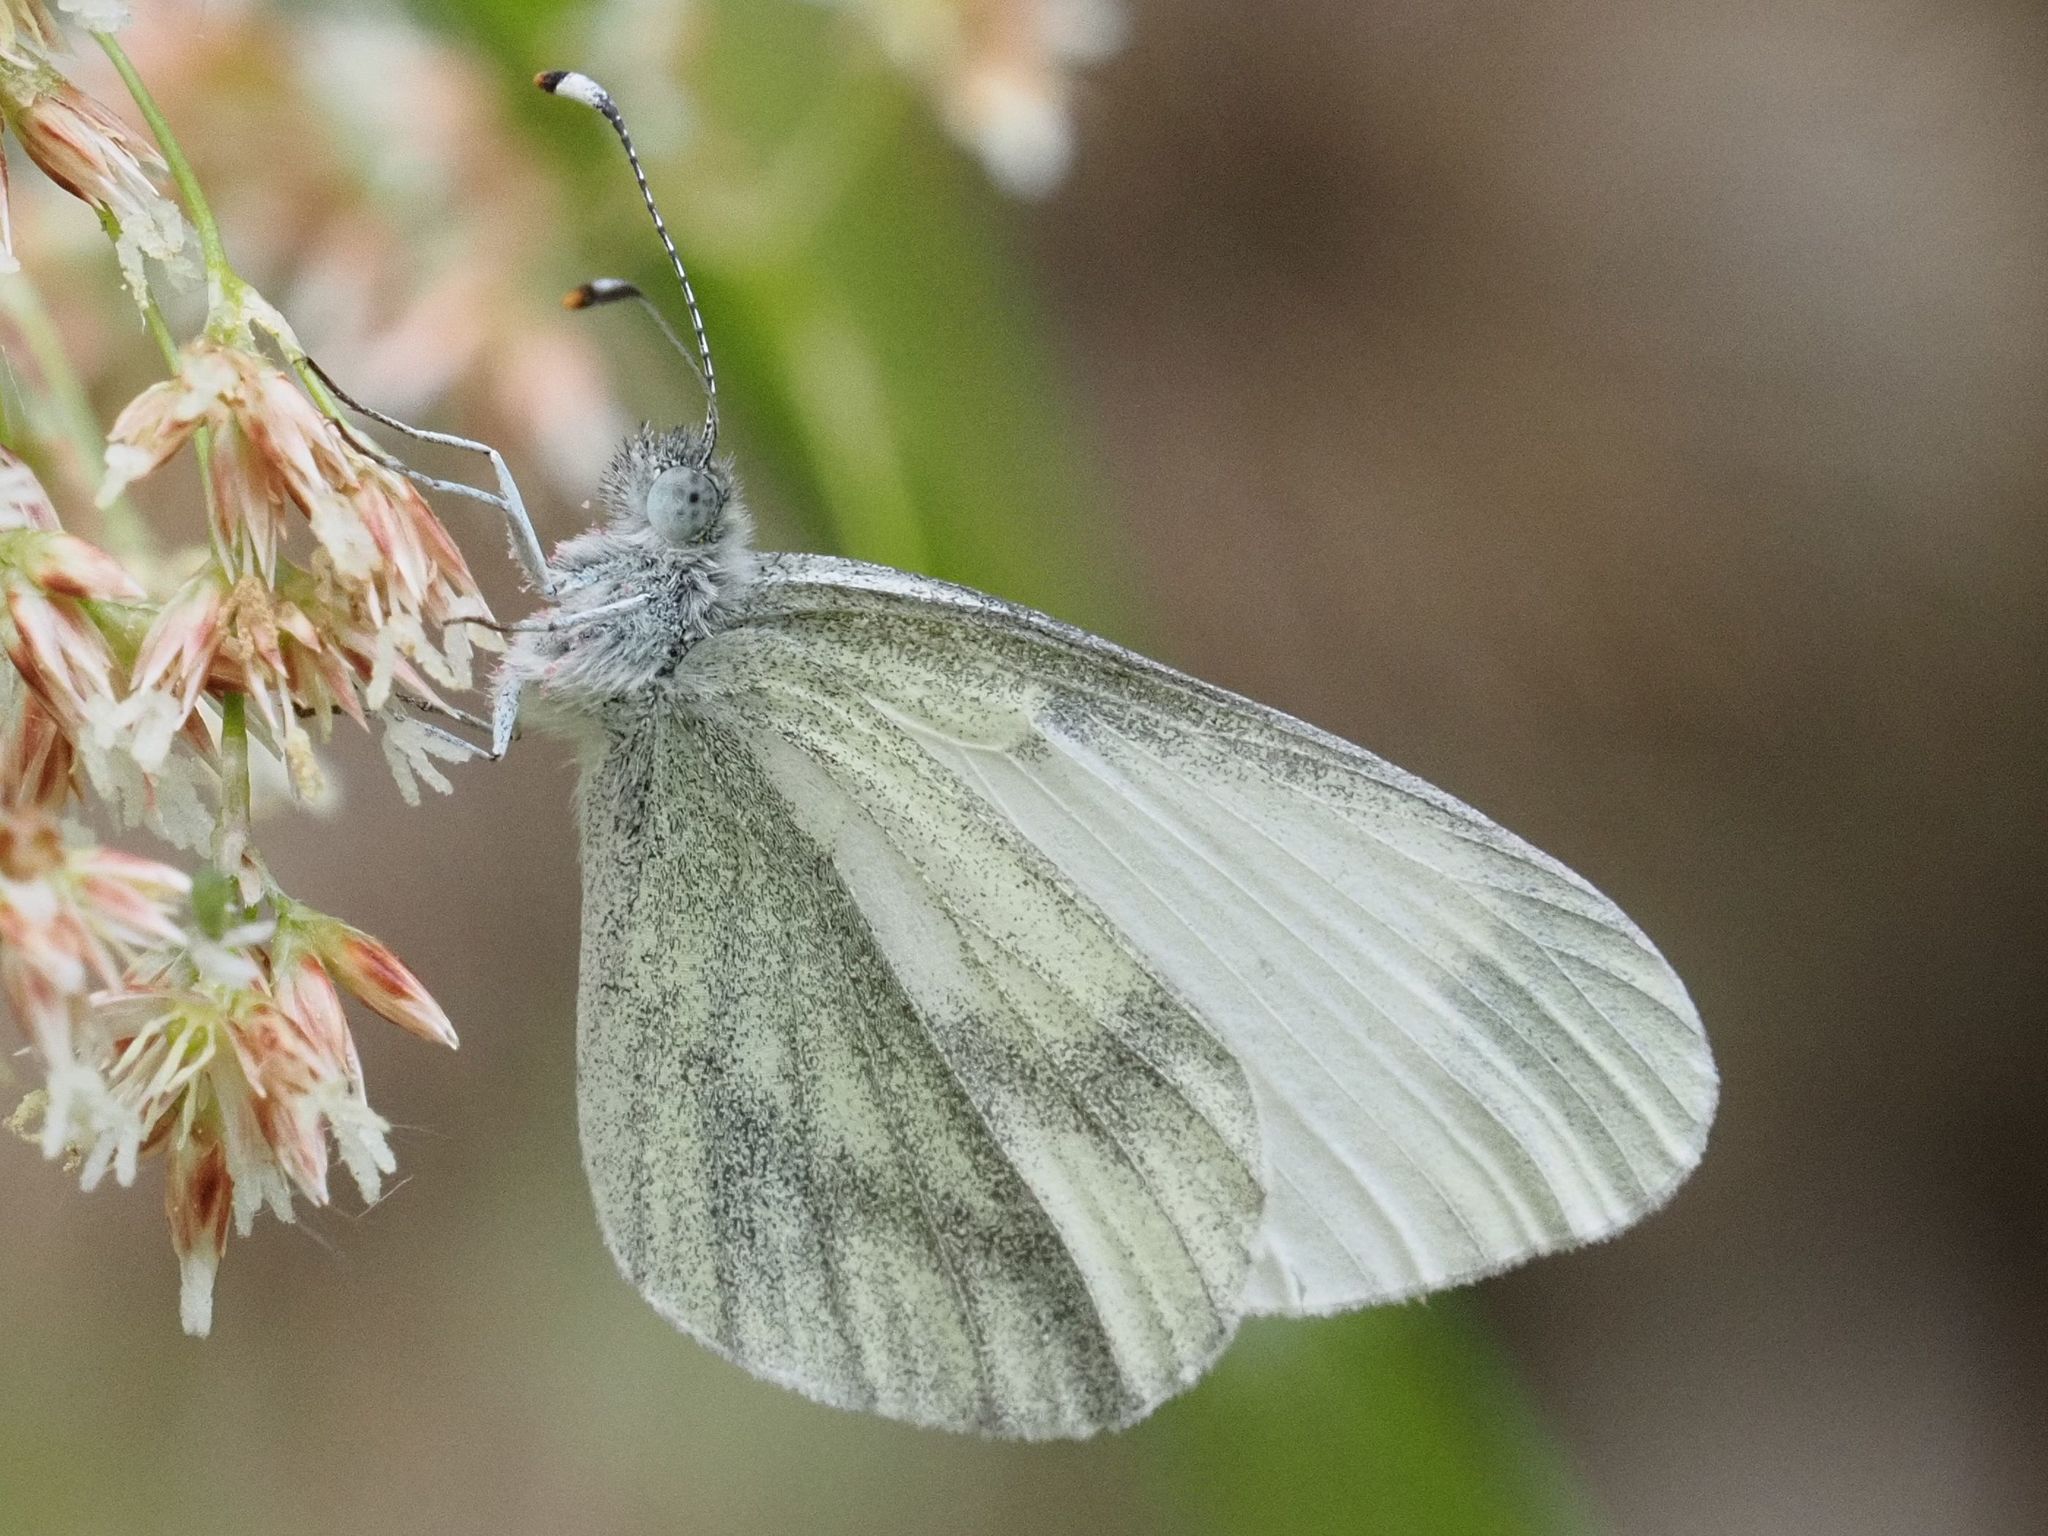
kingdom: Animalia
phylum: Arthropoda
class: Insecta
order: Lepidoptera
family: Pieridae
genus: Leptidea
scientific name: Leptidea
